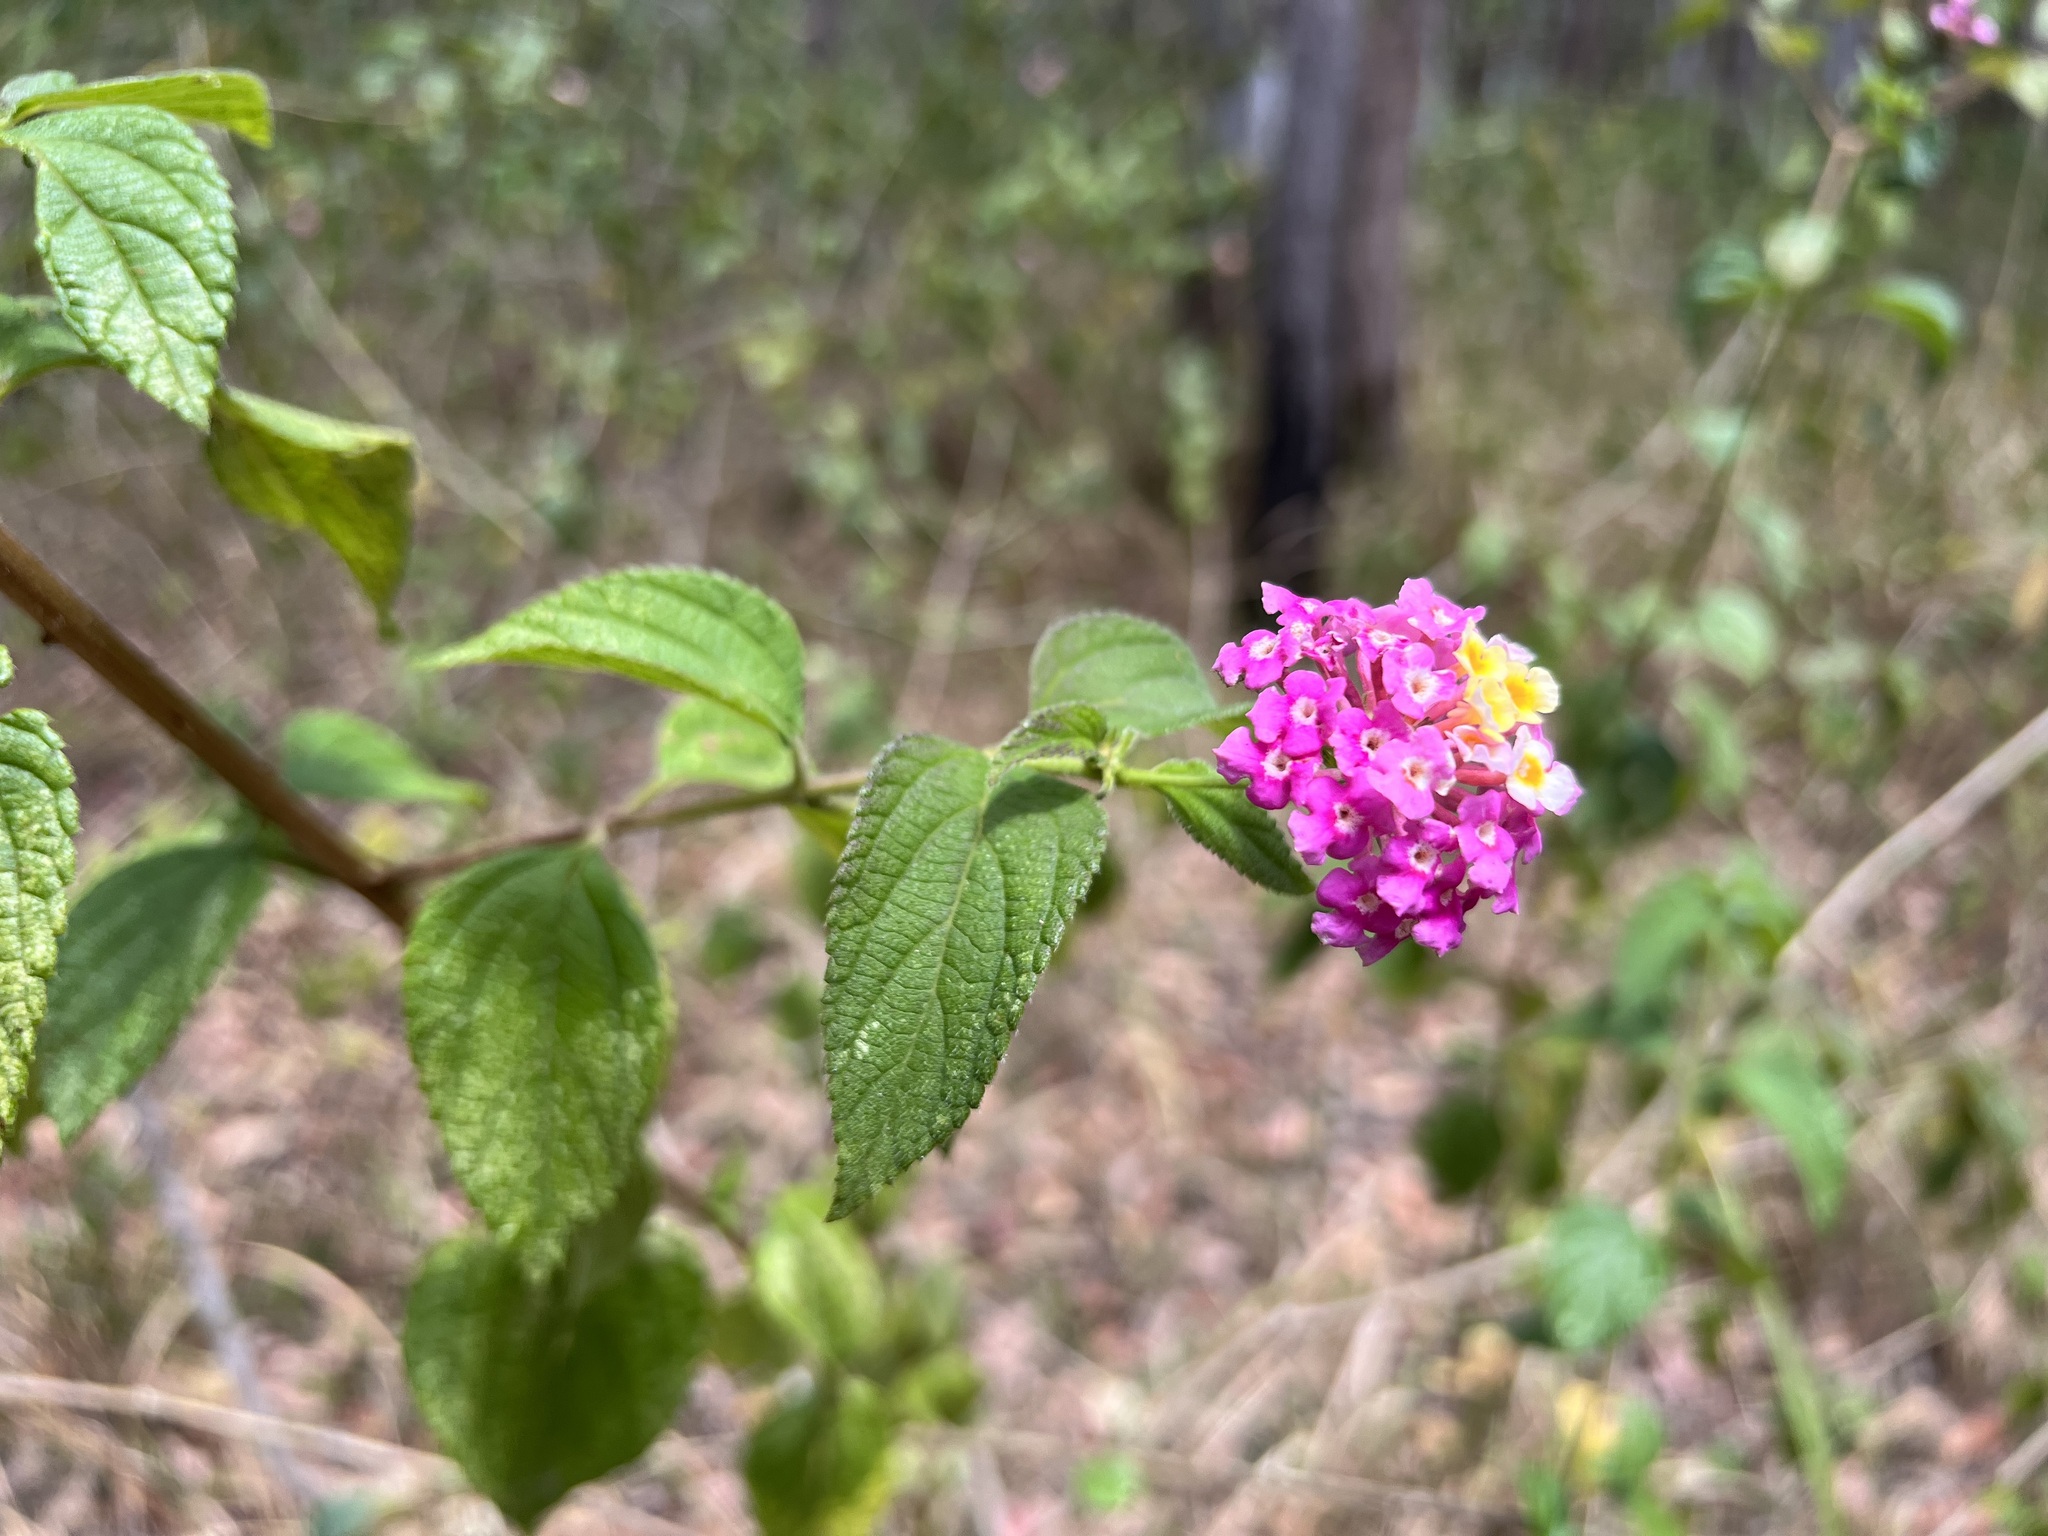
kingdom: Plantae
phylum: Tracheophyta
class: Magnoliopsida
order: Lamiales
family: Verbenaceae
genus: Lantana
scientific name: Lantana camara
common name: Lantana
